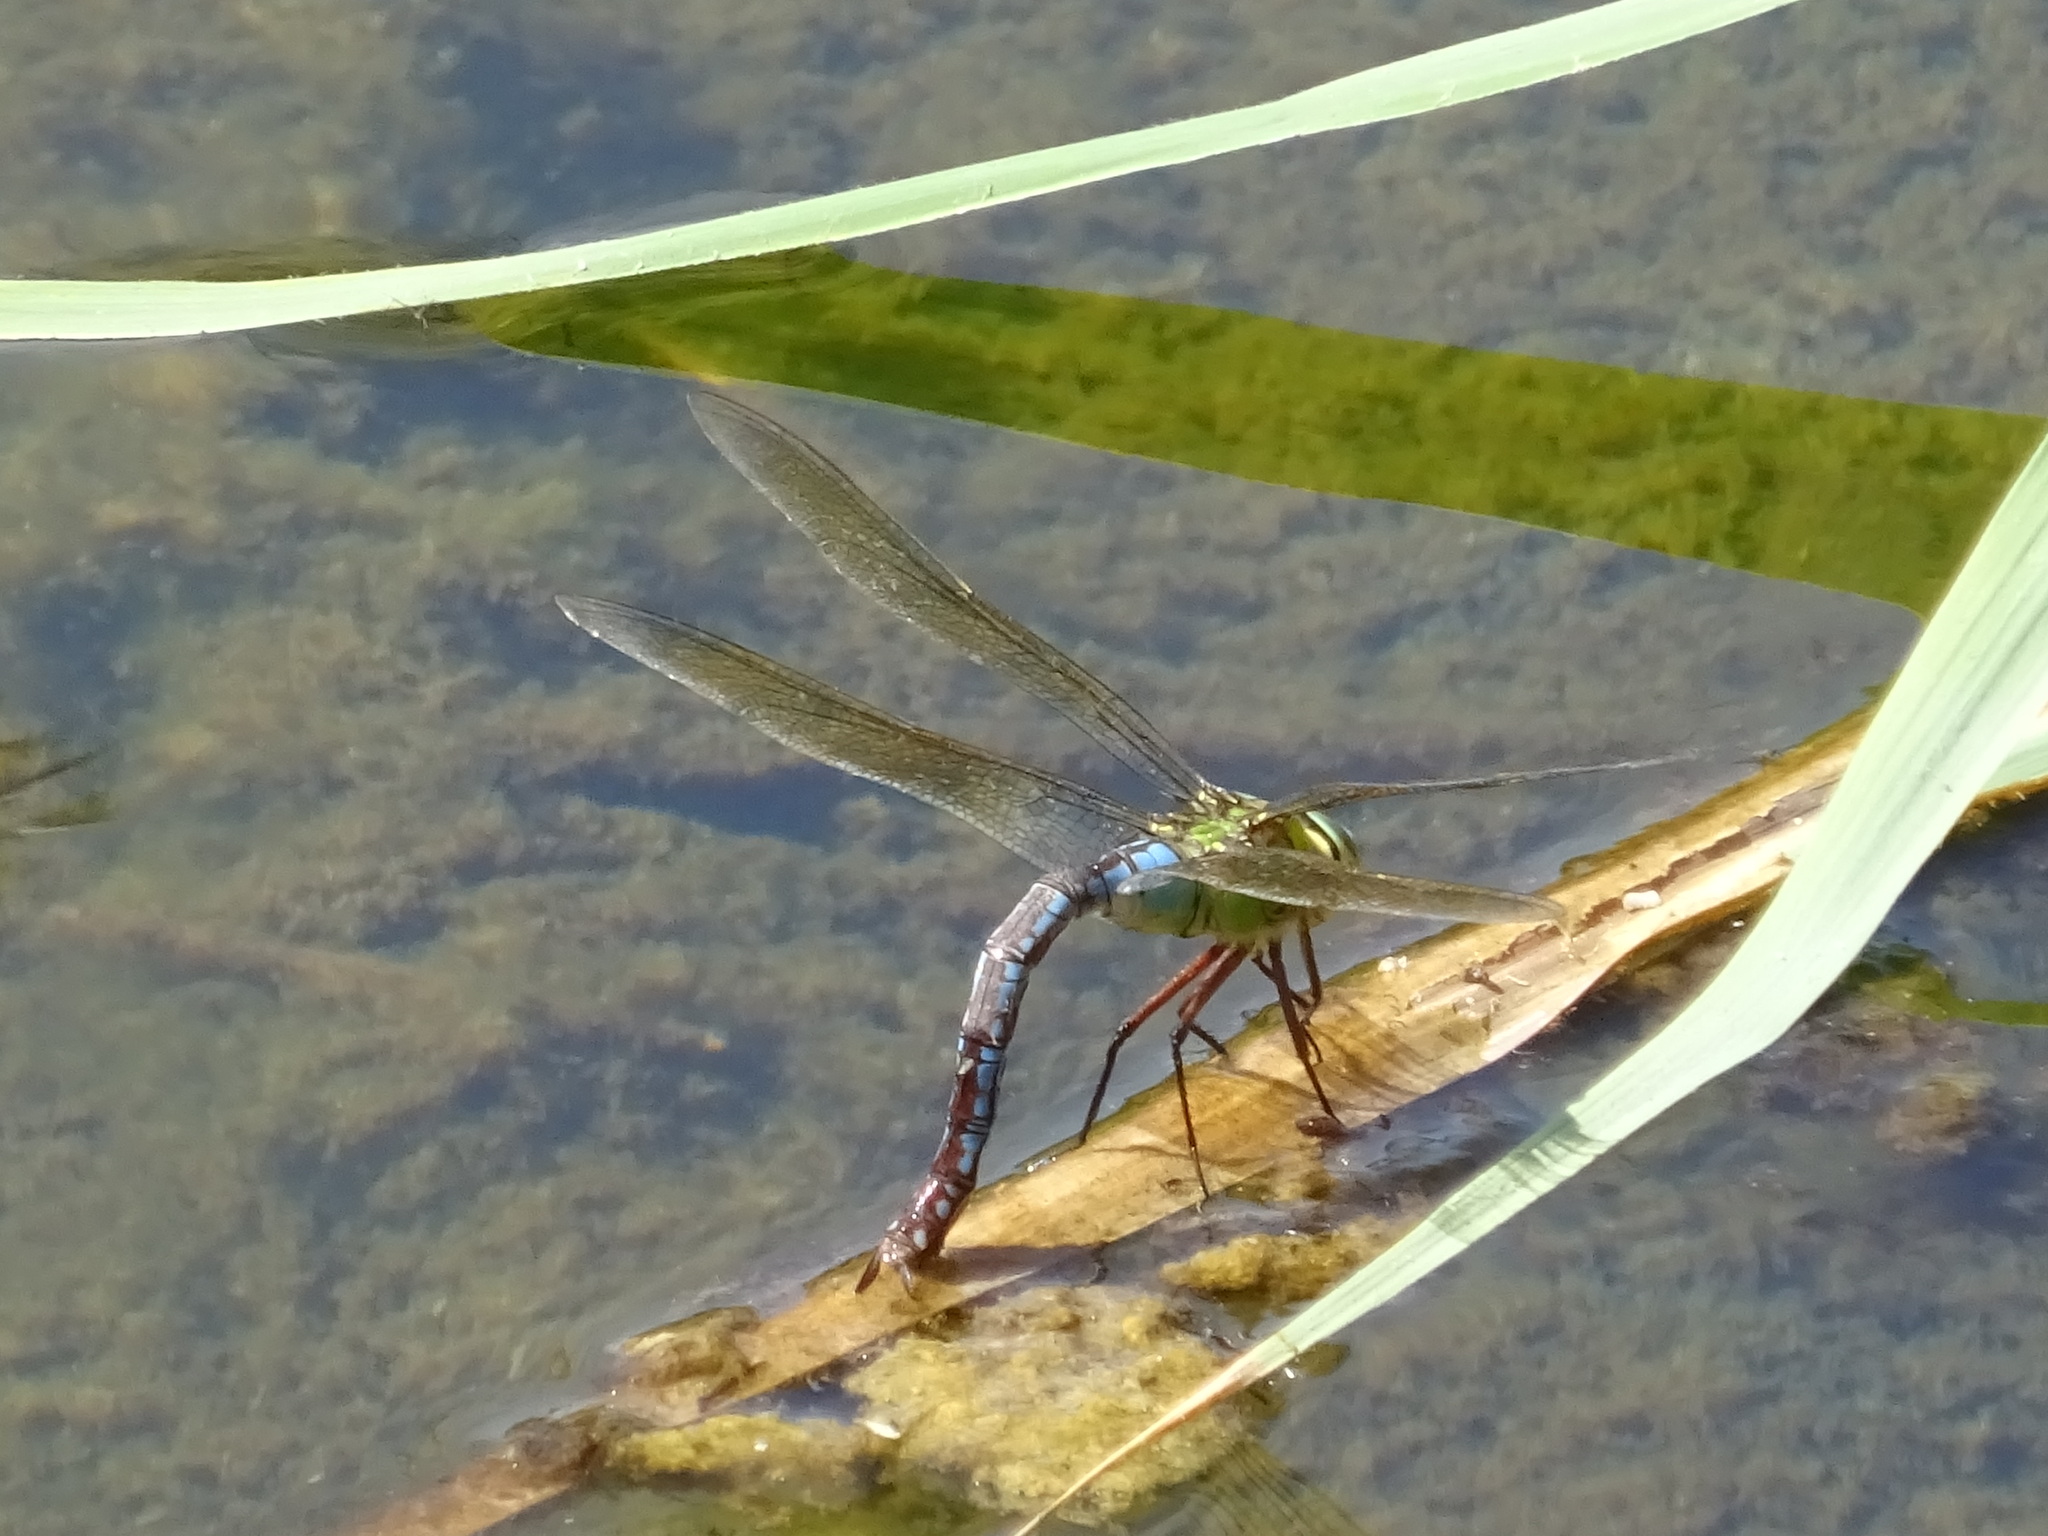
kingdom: Animalia
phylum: Arthropoda
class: Insecta
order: Odonata
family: Aeshnidae
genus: Anax
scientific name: Anax imperator
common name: Emperor dragonfly
